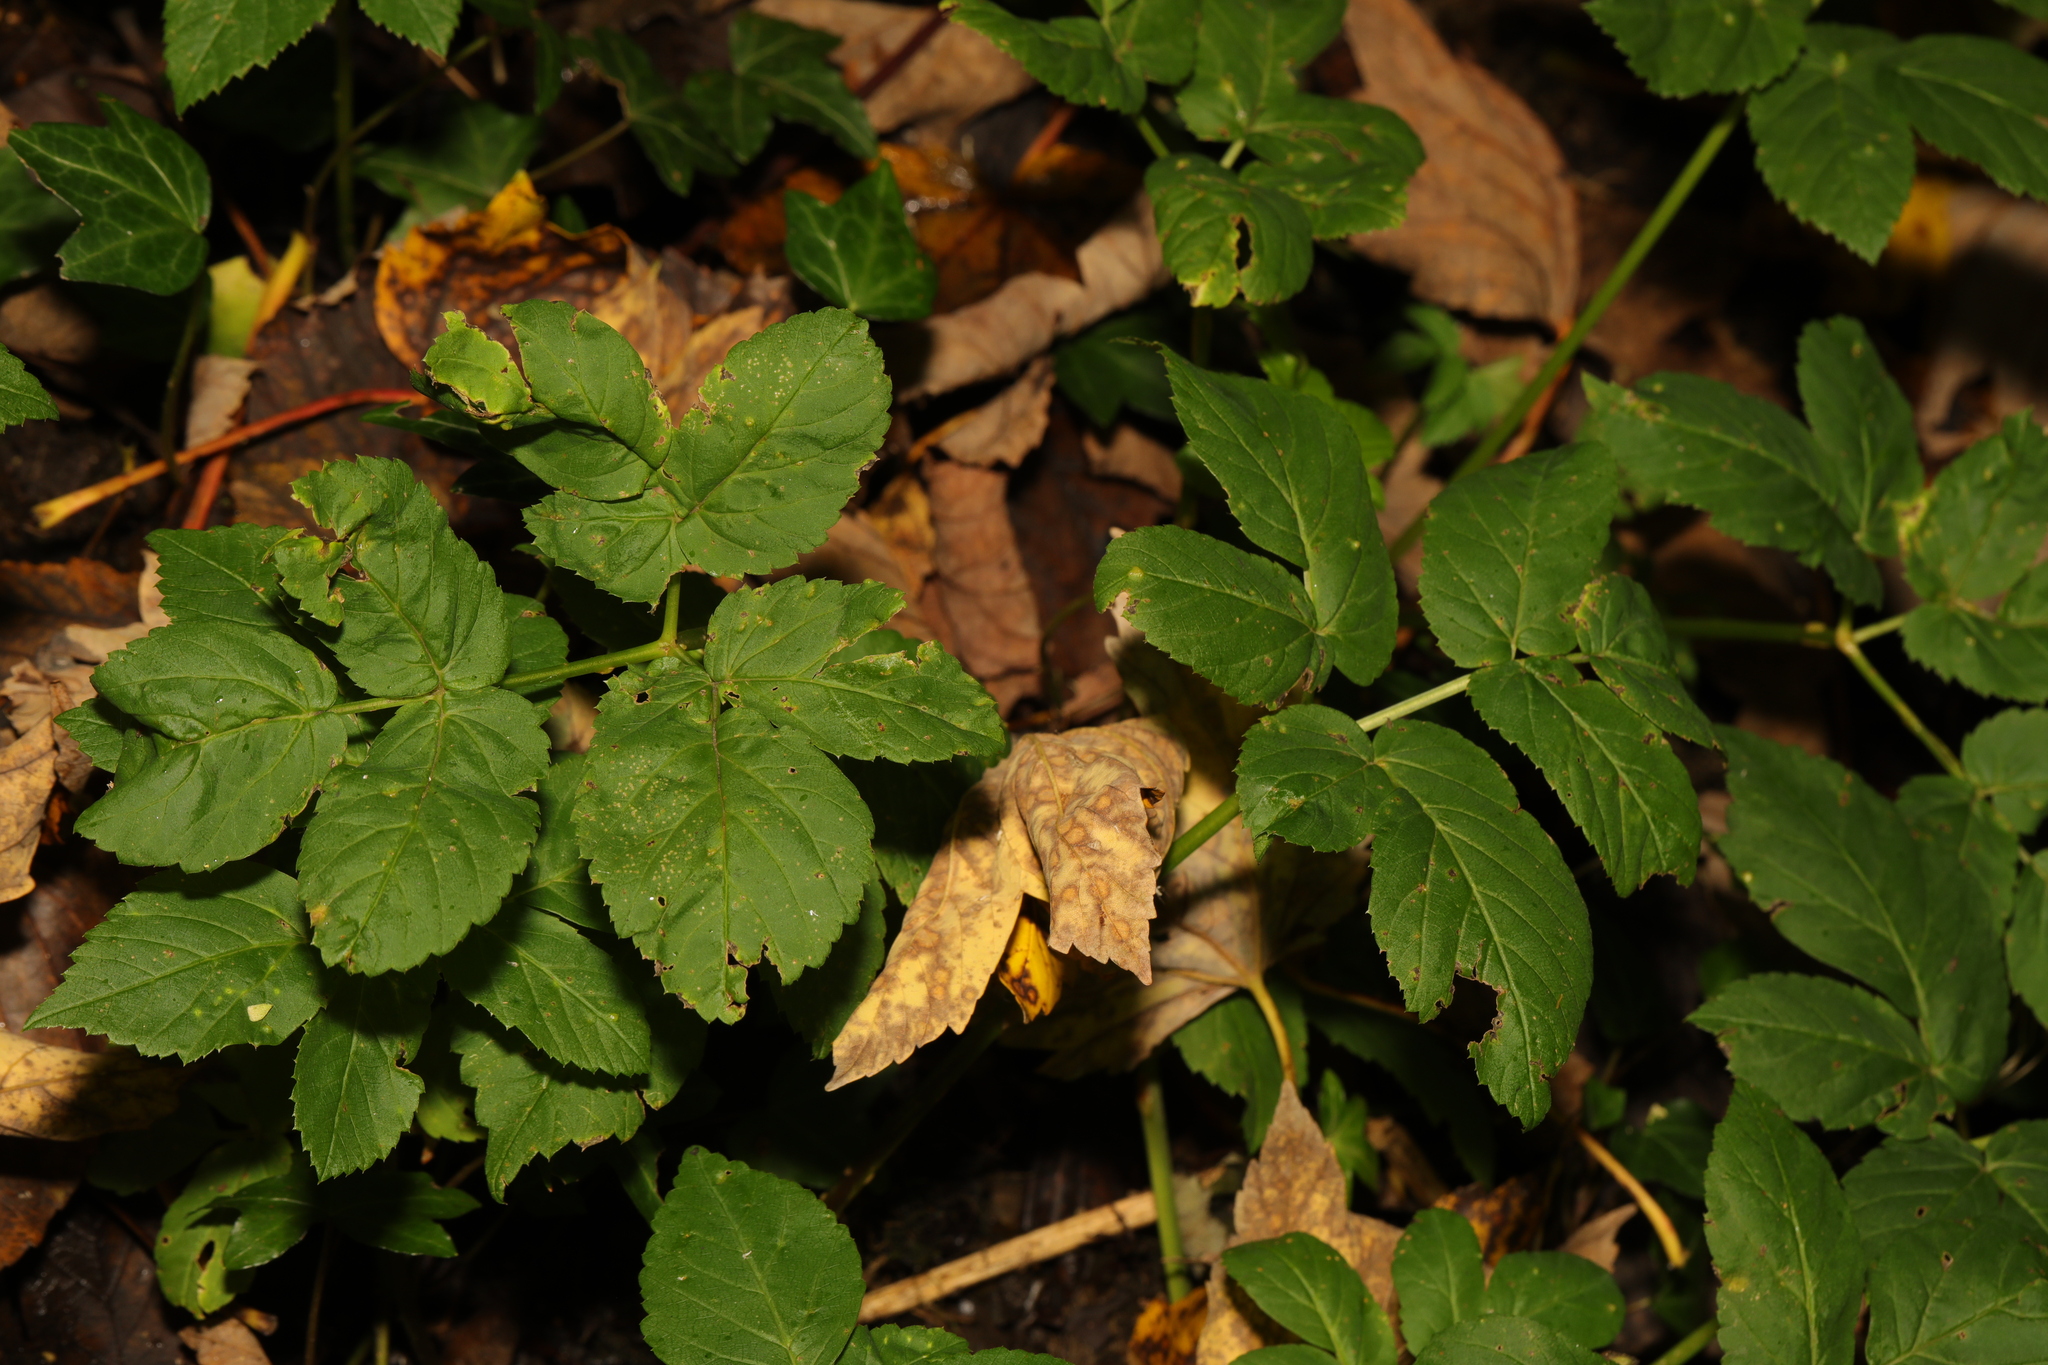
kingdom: Plantae
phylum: Tracheophyta
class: Magnoliopsida
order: Apiales
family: Apiaceae
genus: Aegopodium
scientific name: Aegopodium podagraria
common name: Ground-elder
